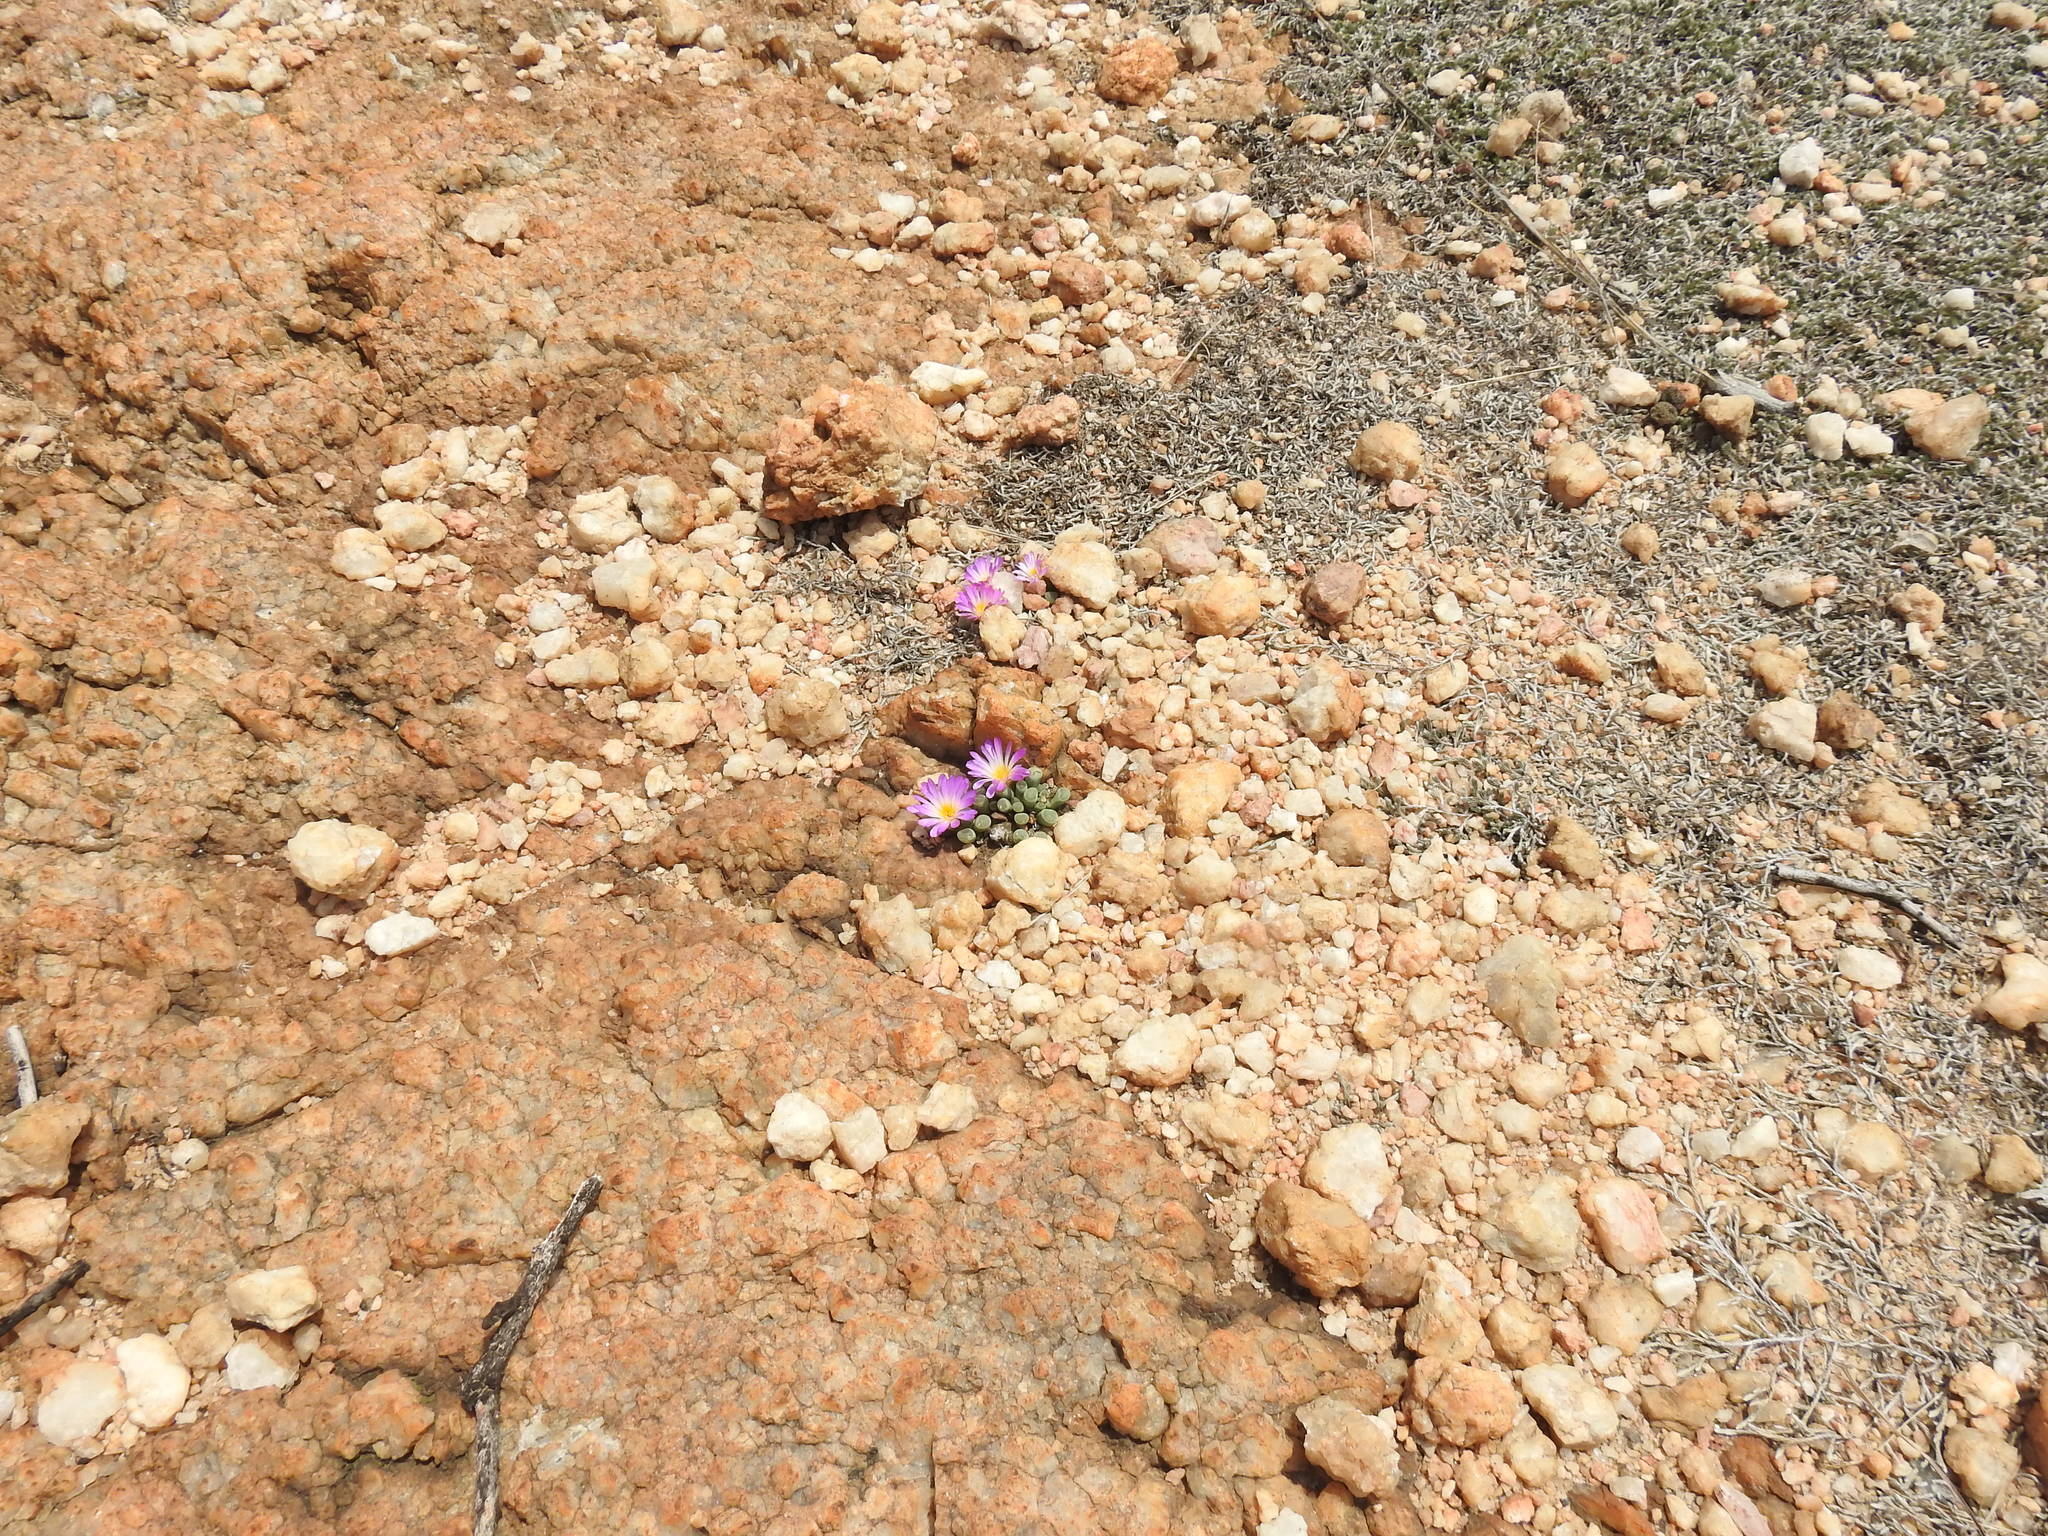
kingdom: Plantae
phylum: Tracheophyta
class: Magnoliopsida
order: Caryophyllales
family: Aizoaceae
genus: Frithia
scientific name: Frithia pulchra
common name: Fairy elephant's-feet
